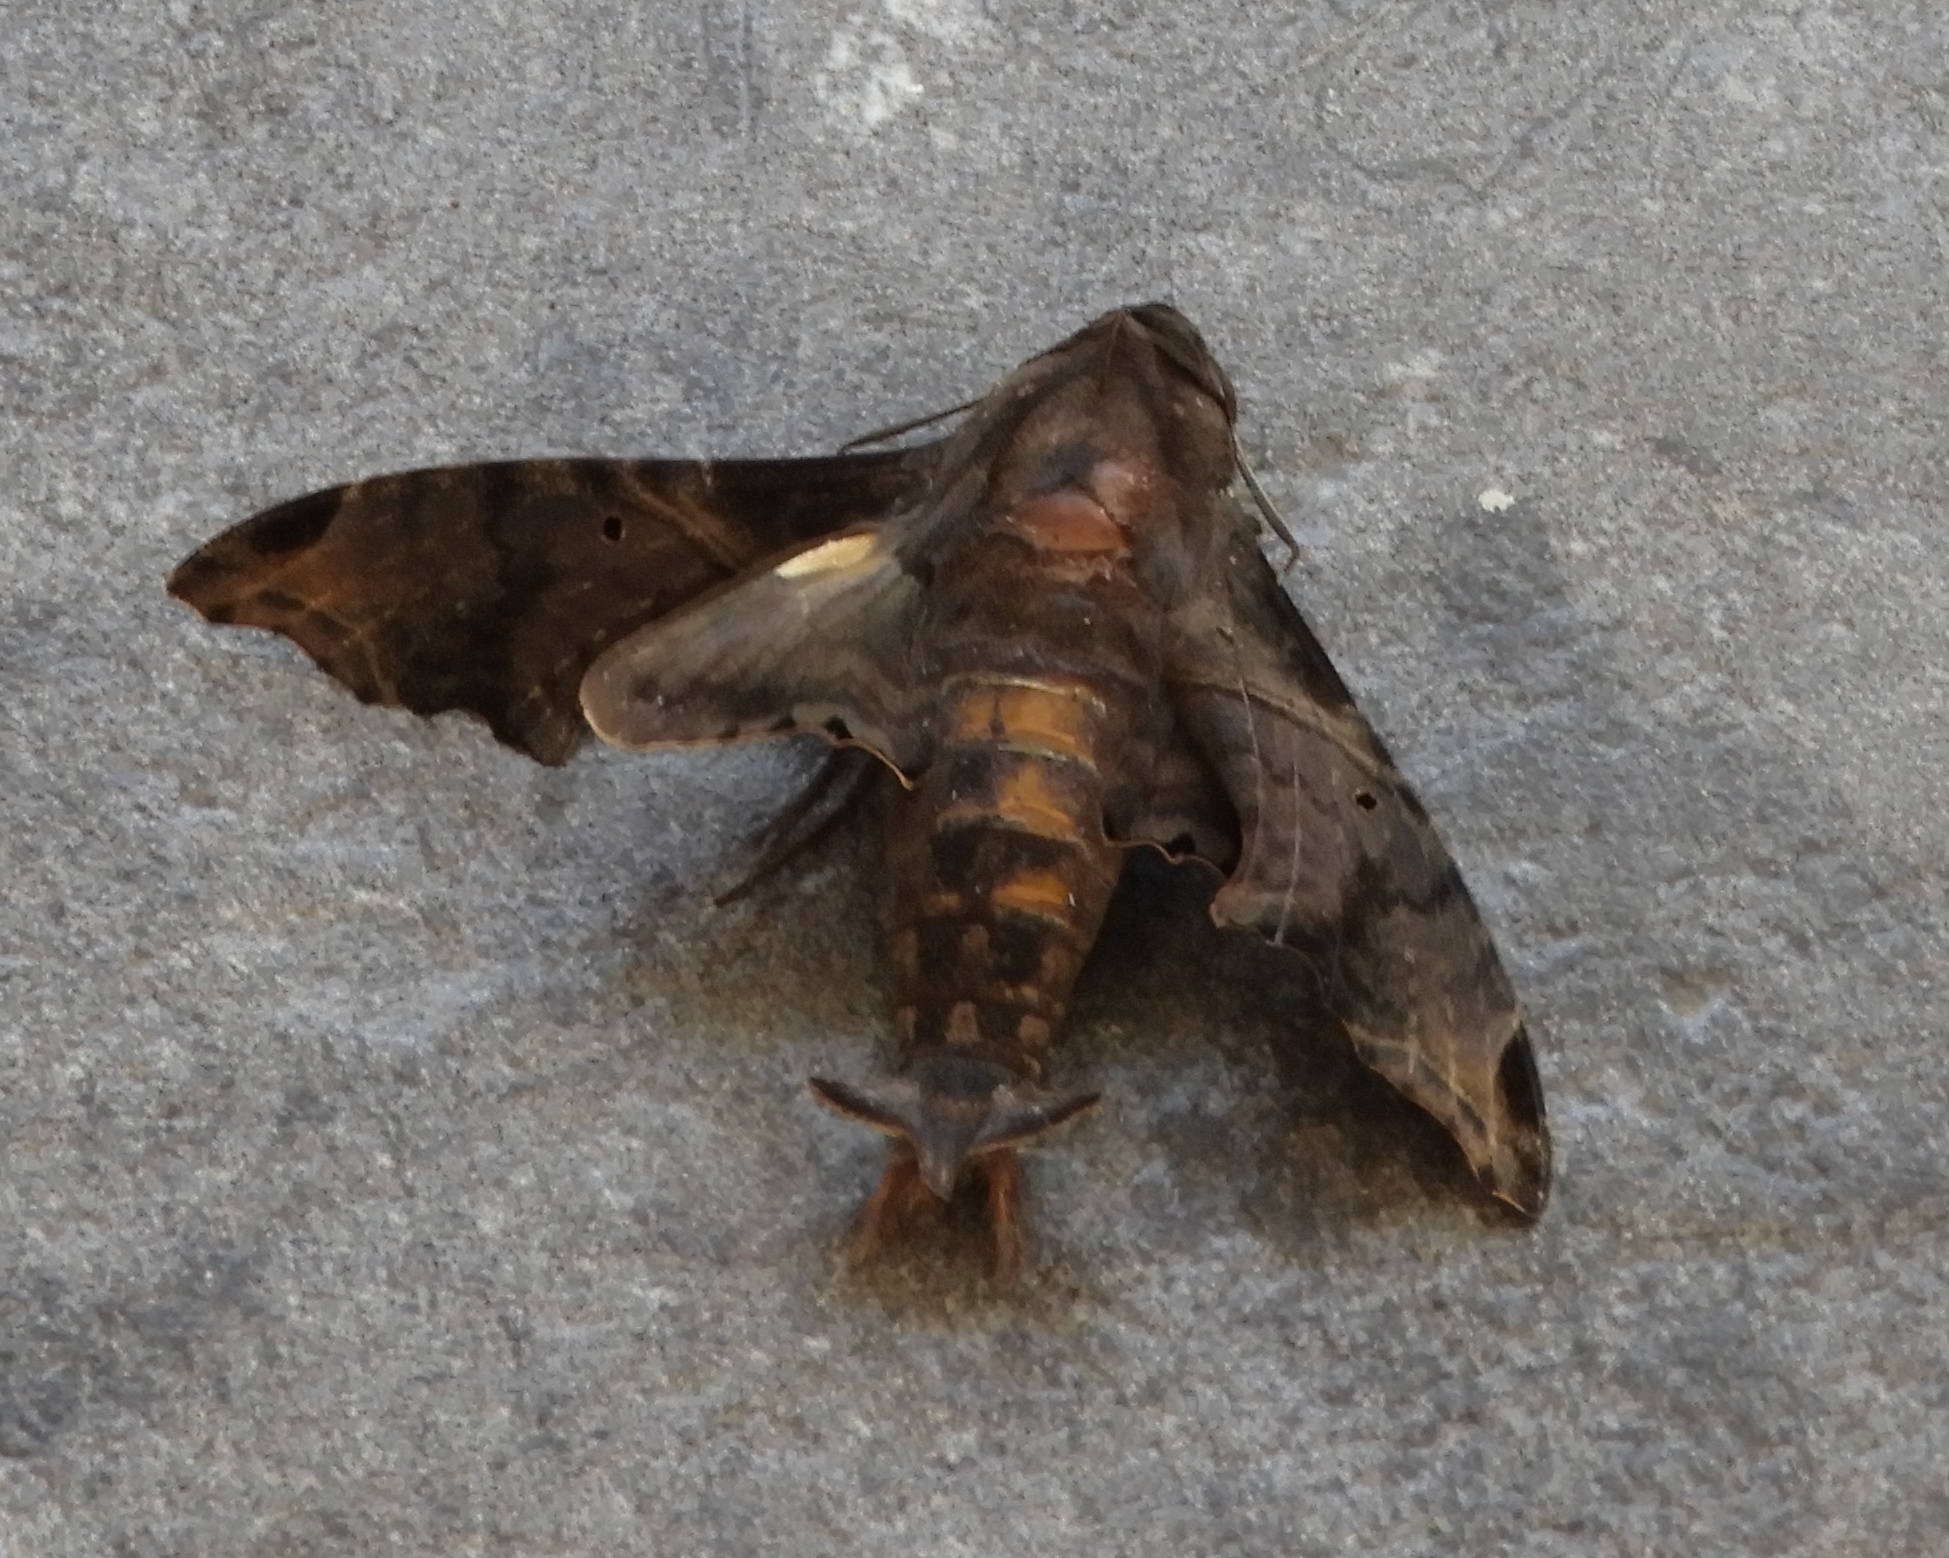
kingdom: Animalia
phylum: Arthropoda
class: Insecta
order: Lepidoptera
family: Sphingidae
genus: Enyo
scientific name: Enyo lugubris
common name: Mournful sphinx
